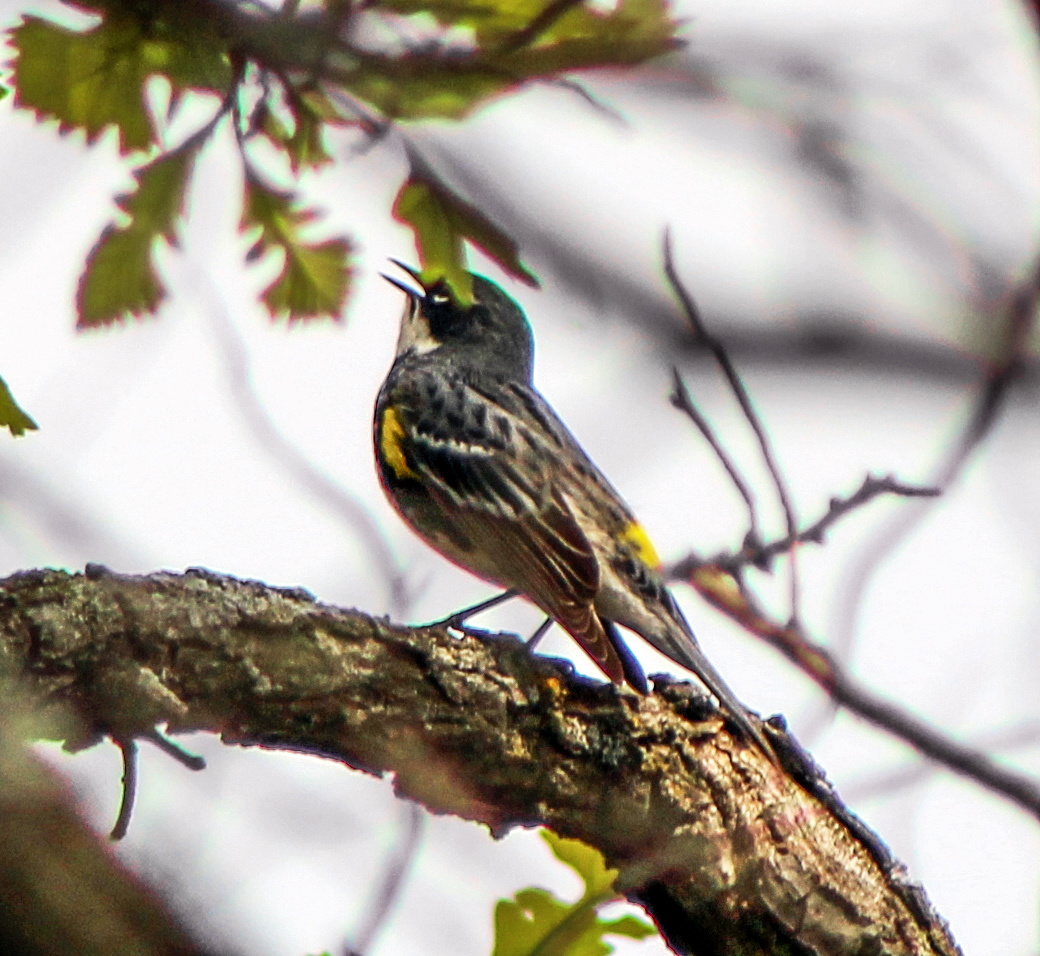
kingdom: Animalia
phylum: Chordata
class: Aves
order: Passeriformes
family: Parulidae
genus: Setophaga
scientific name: Setophaga coronata
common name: Myrtle warbler
